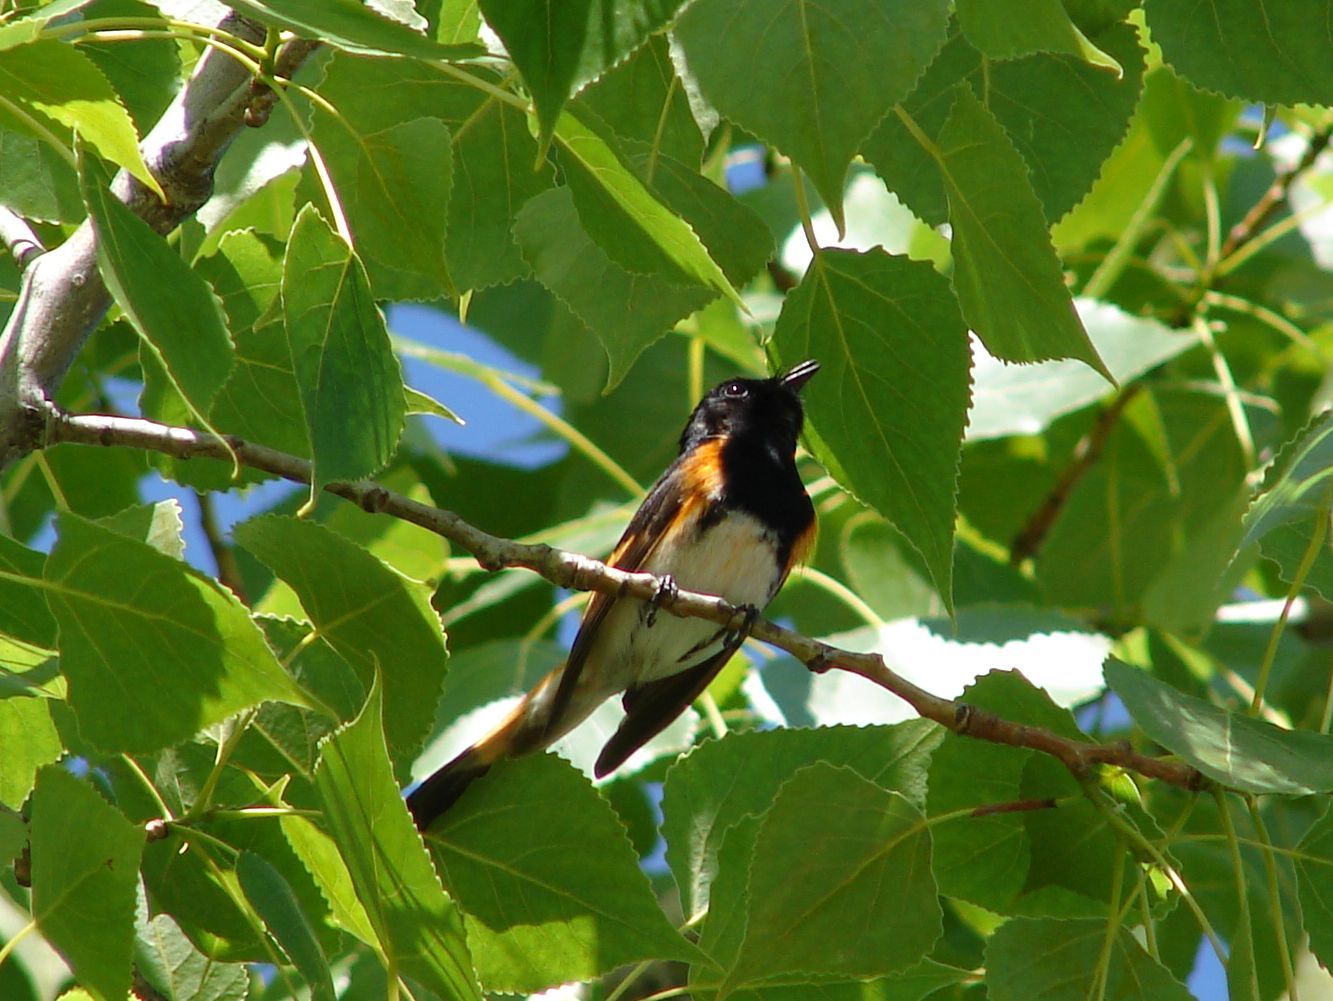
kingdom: Animalia
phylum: Chordata
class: Aves
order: Passeriformes
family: Parulidae
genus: Setophaga
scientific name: Setophaga ruticilla
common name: American redstart
